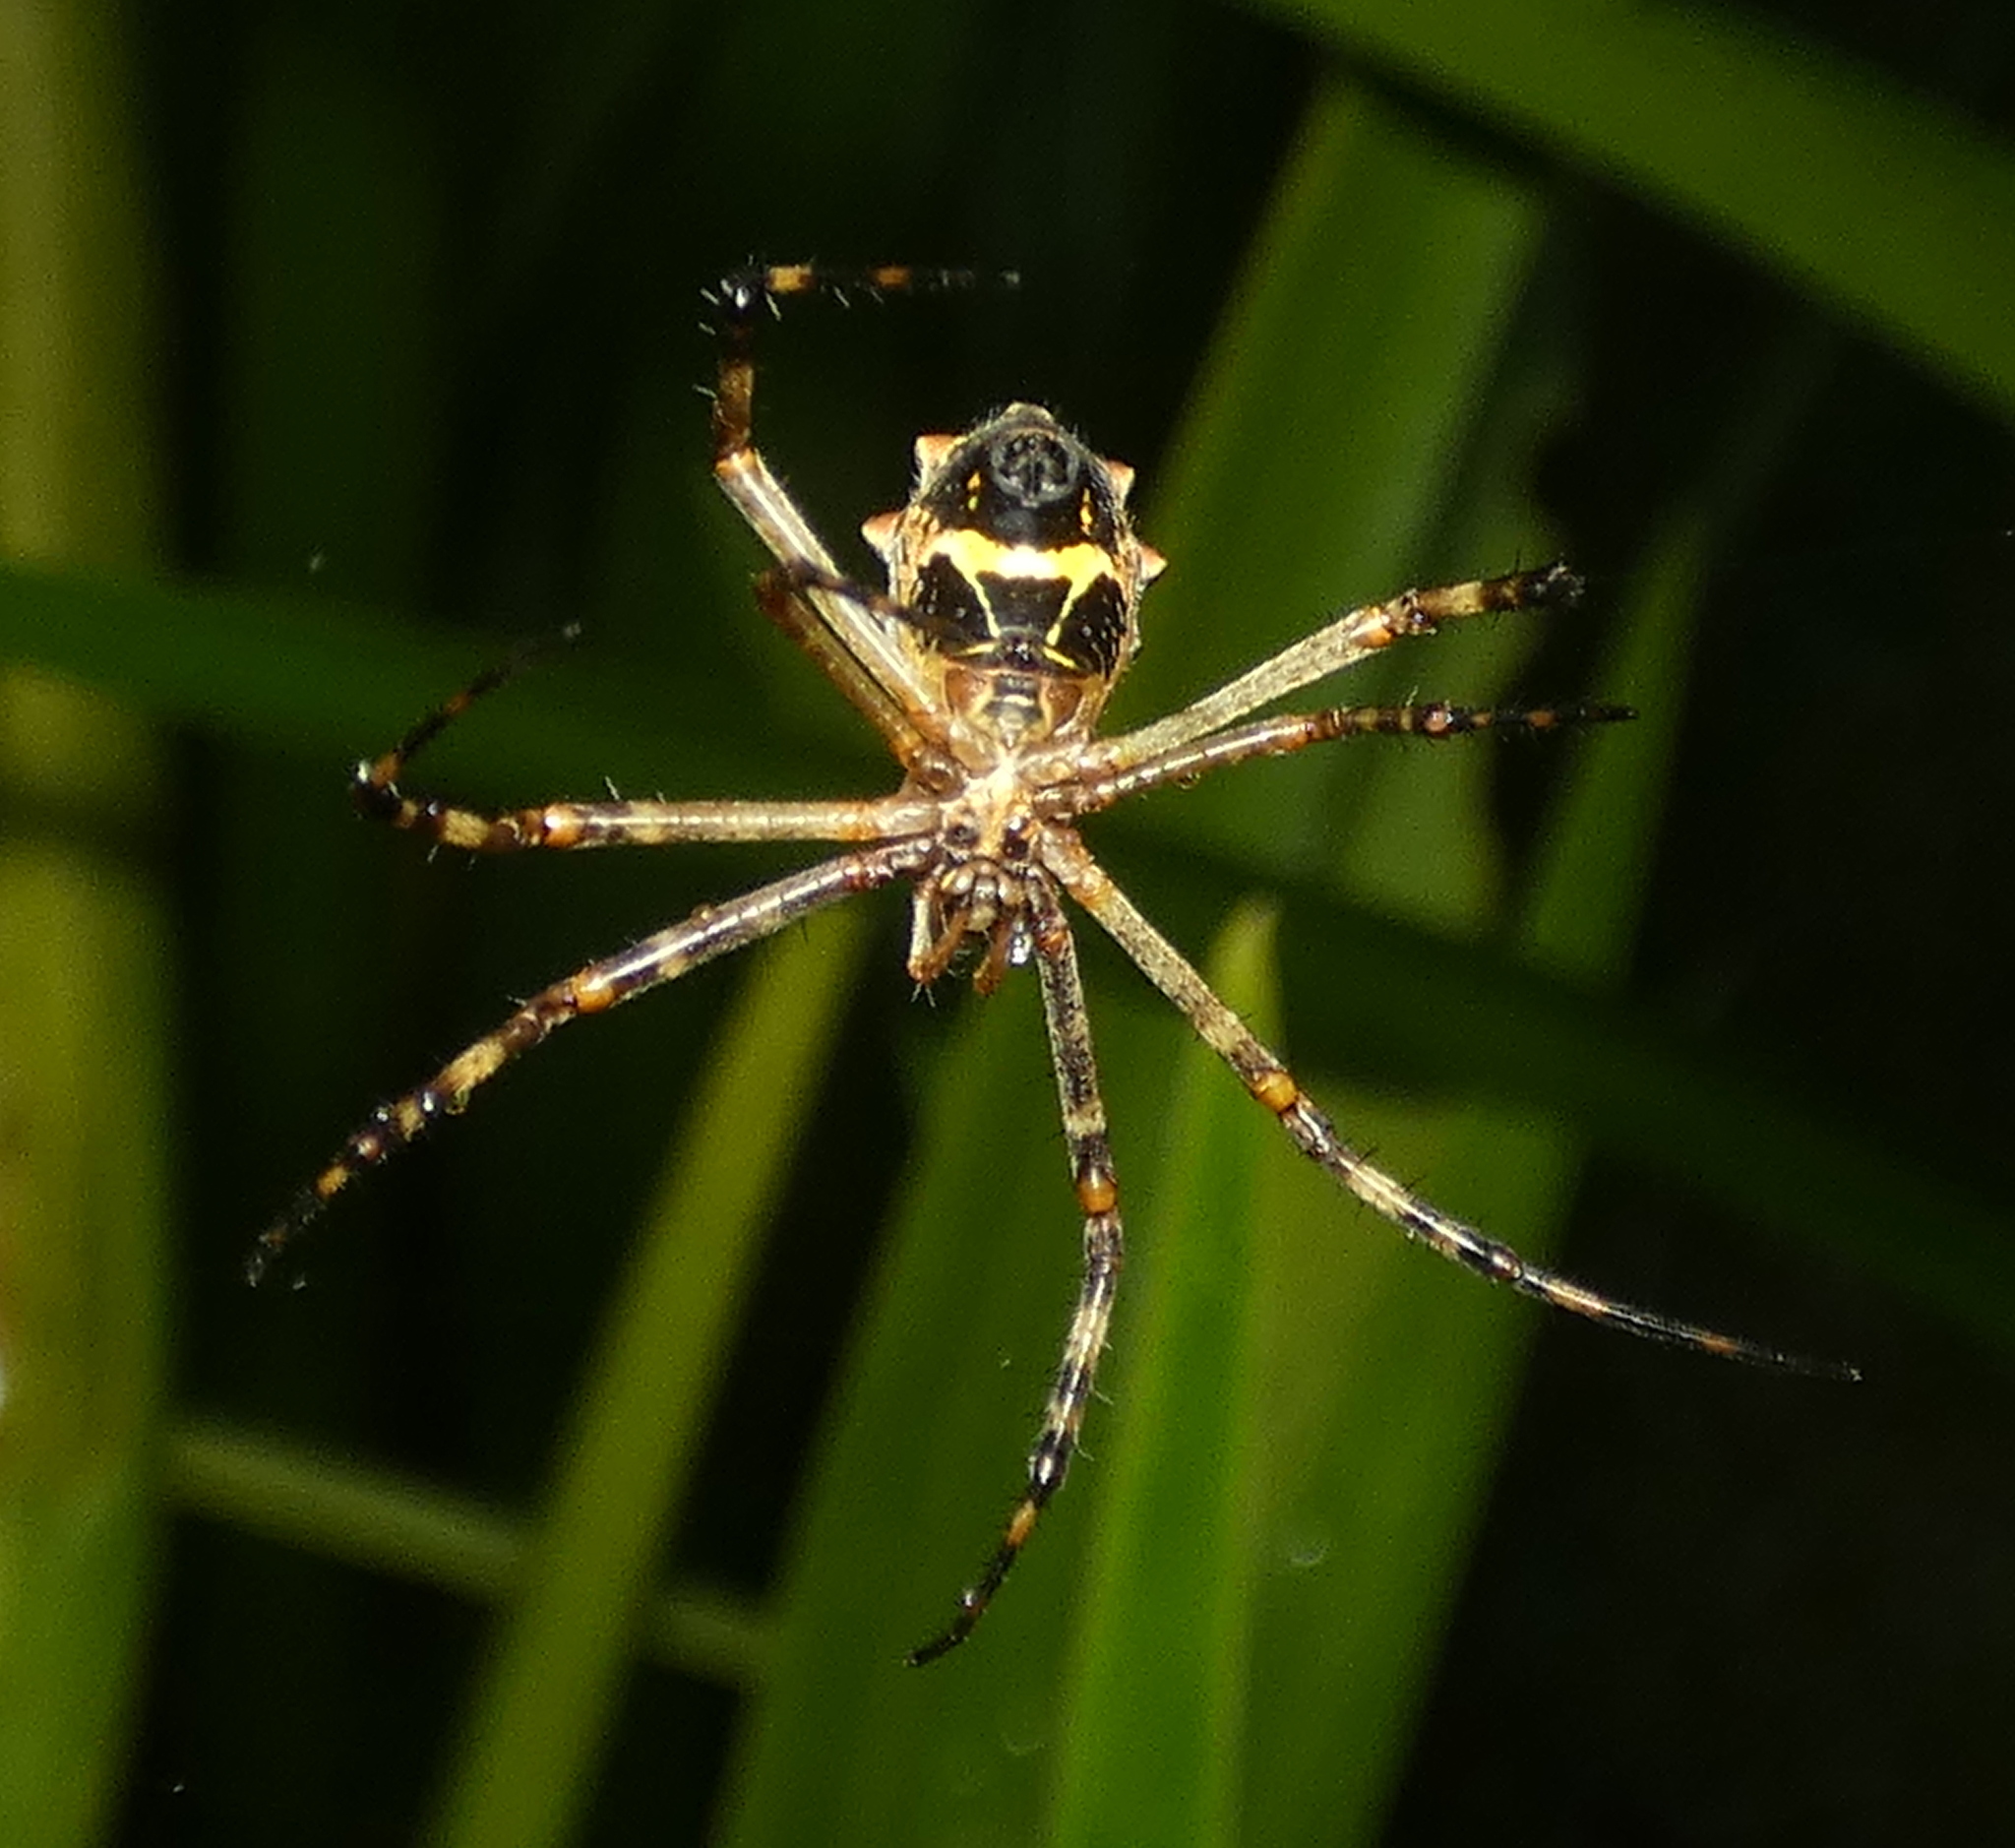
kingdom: Animalia
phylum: Arthropoda
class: Arachnida
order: Araneae
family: Araneidae
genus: Argiope
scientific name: Argiope argentata
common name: Orb weavers
